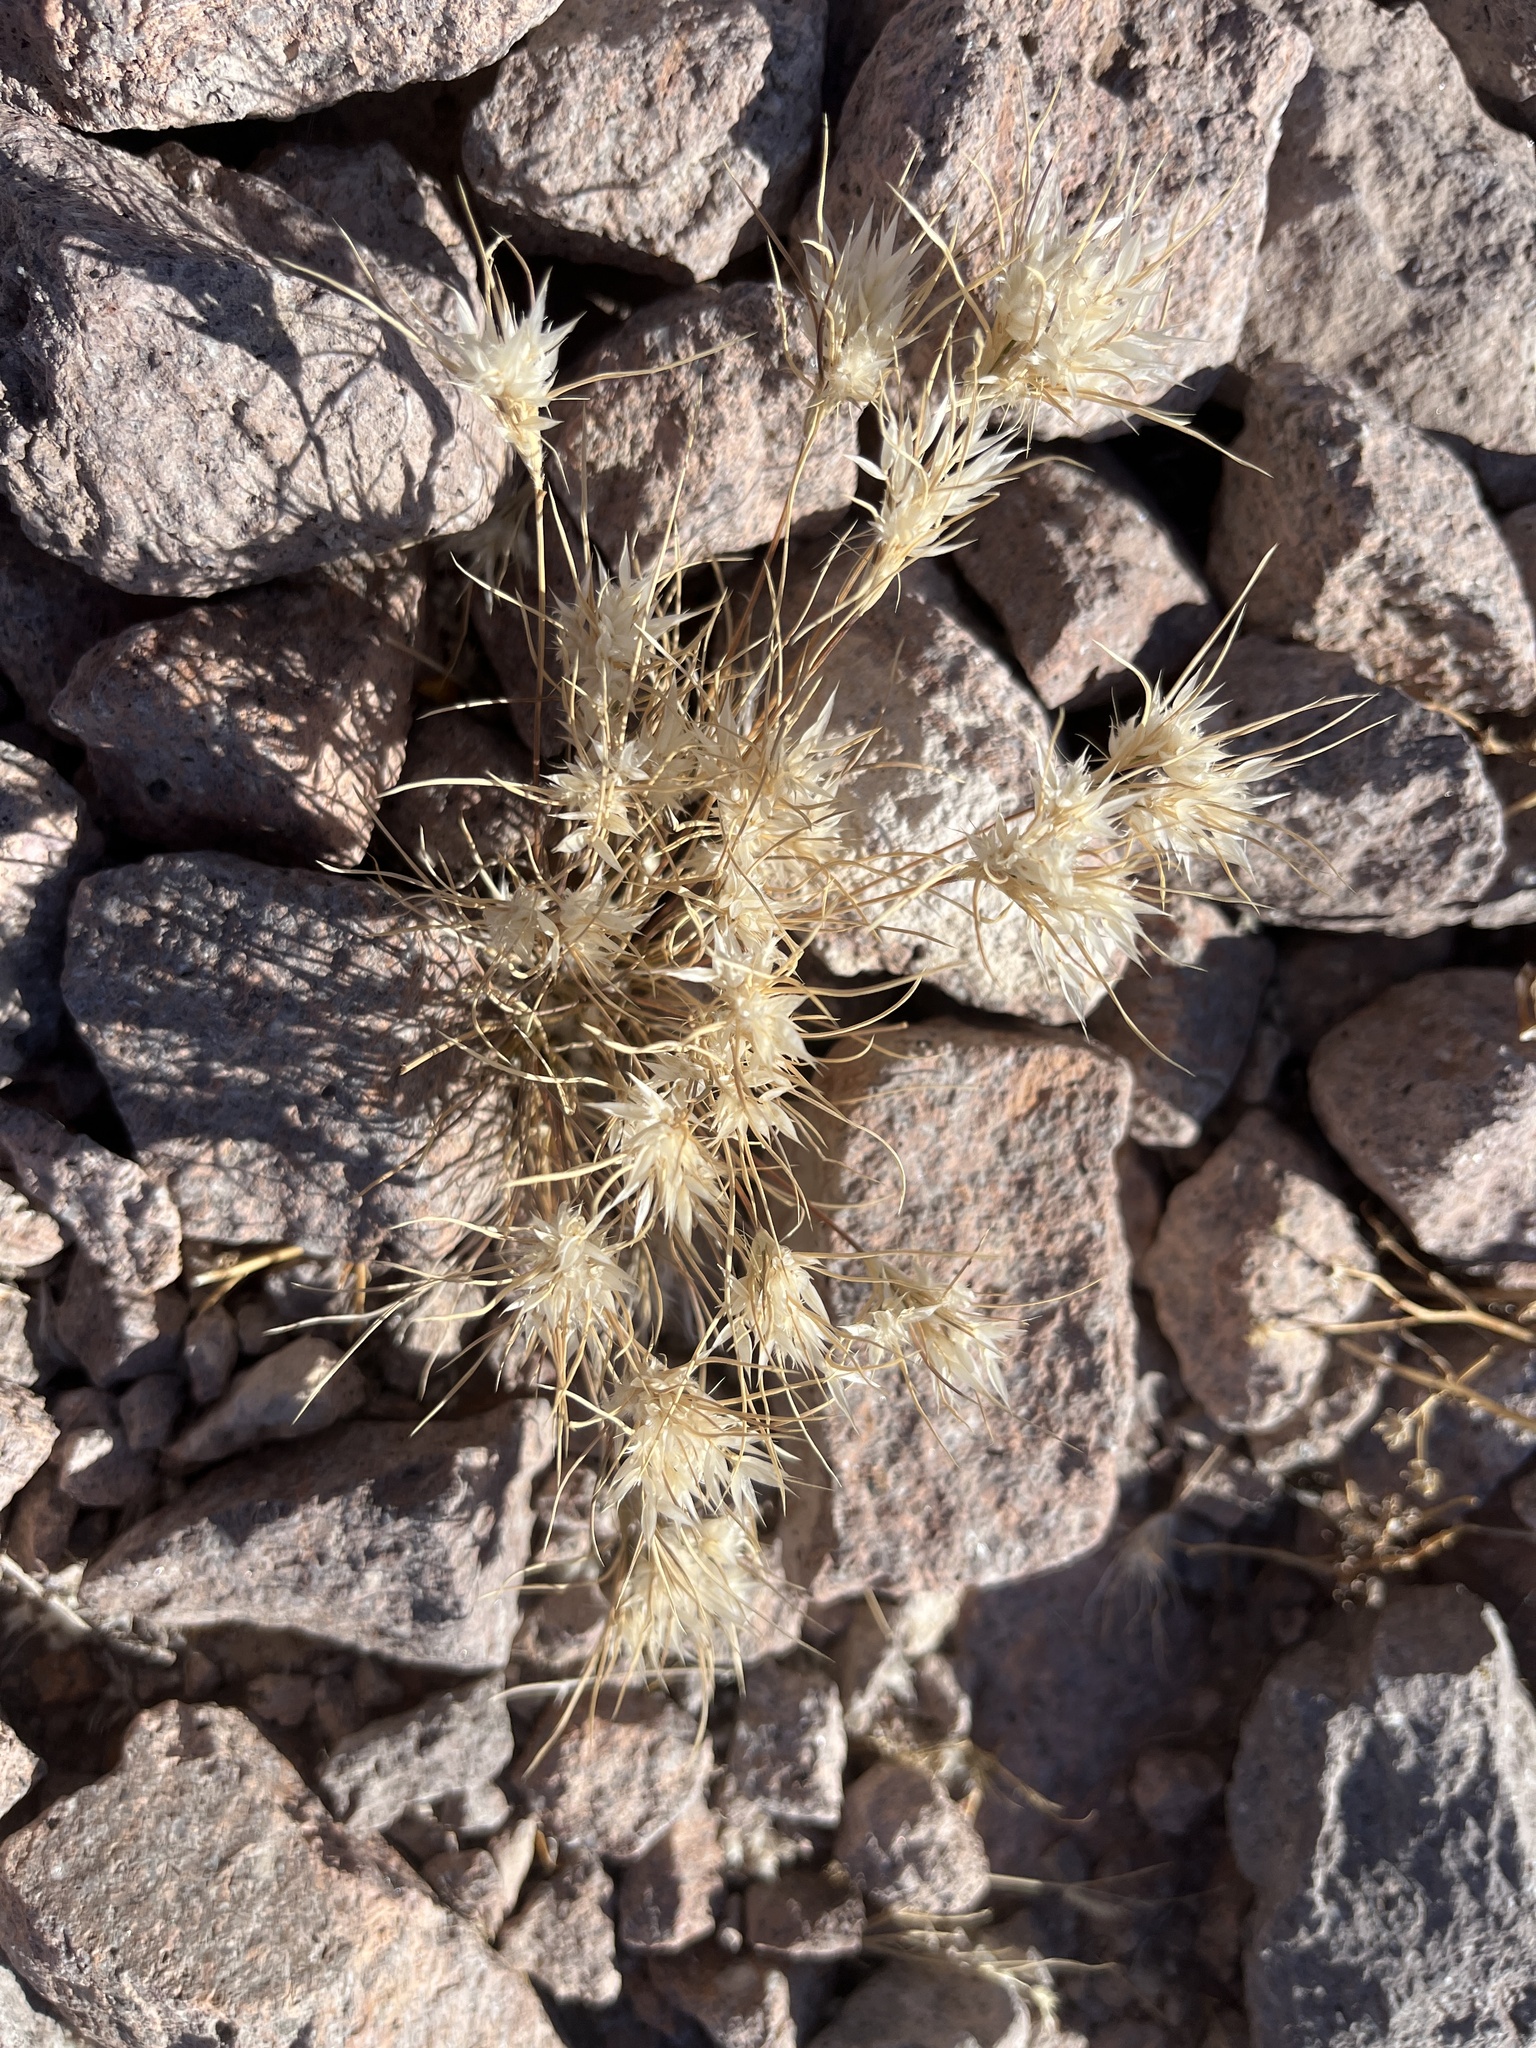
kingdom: Plantae
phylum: Tracheophyta
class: Liliopsida
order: Poales
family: Poaceae
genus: Dasyochloa
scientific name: Dasyochloa pulchella
